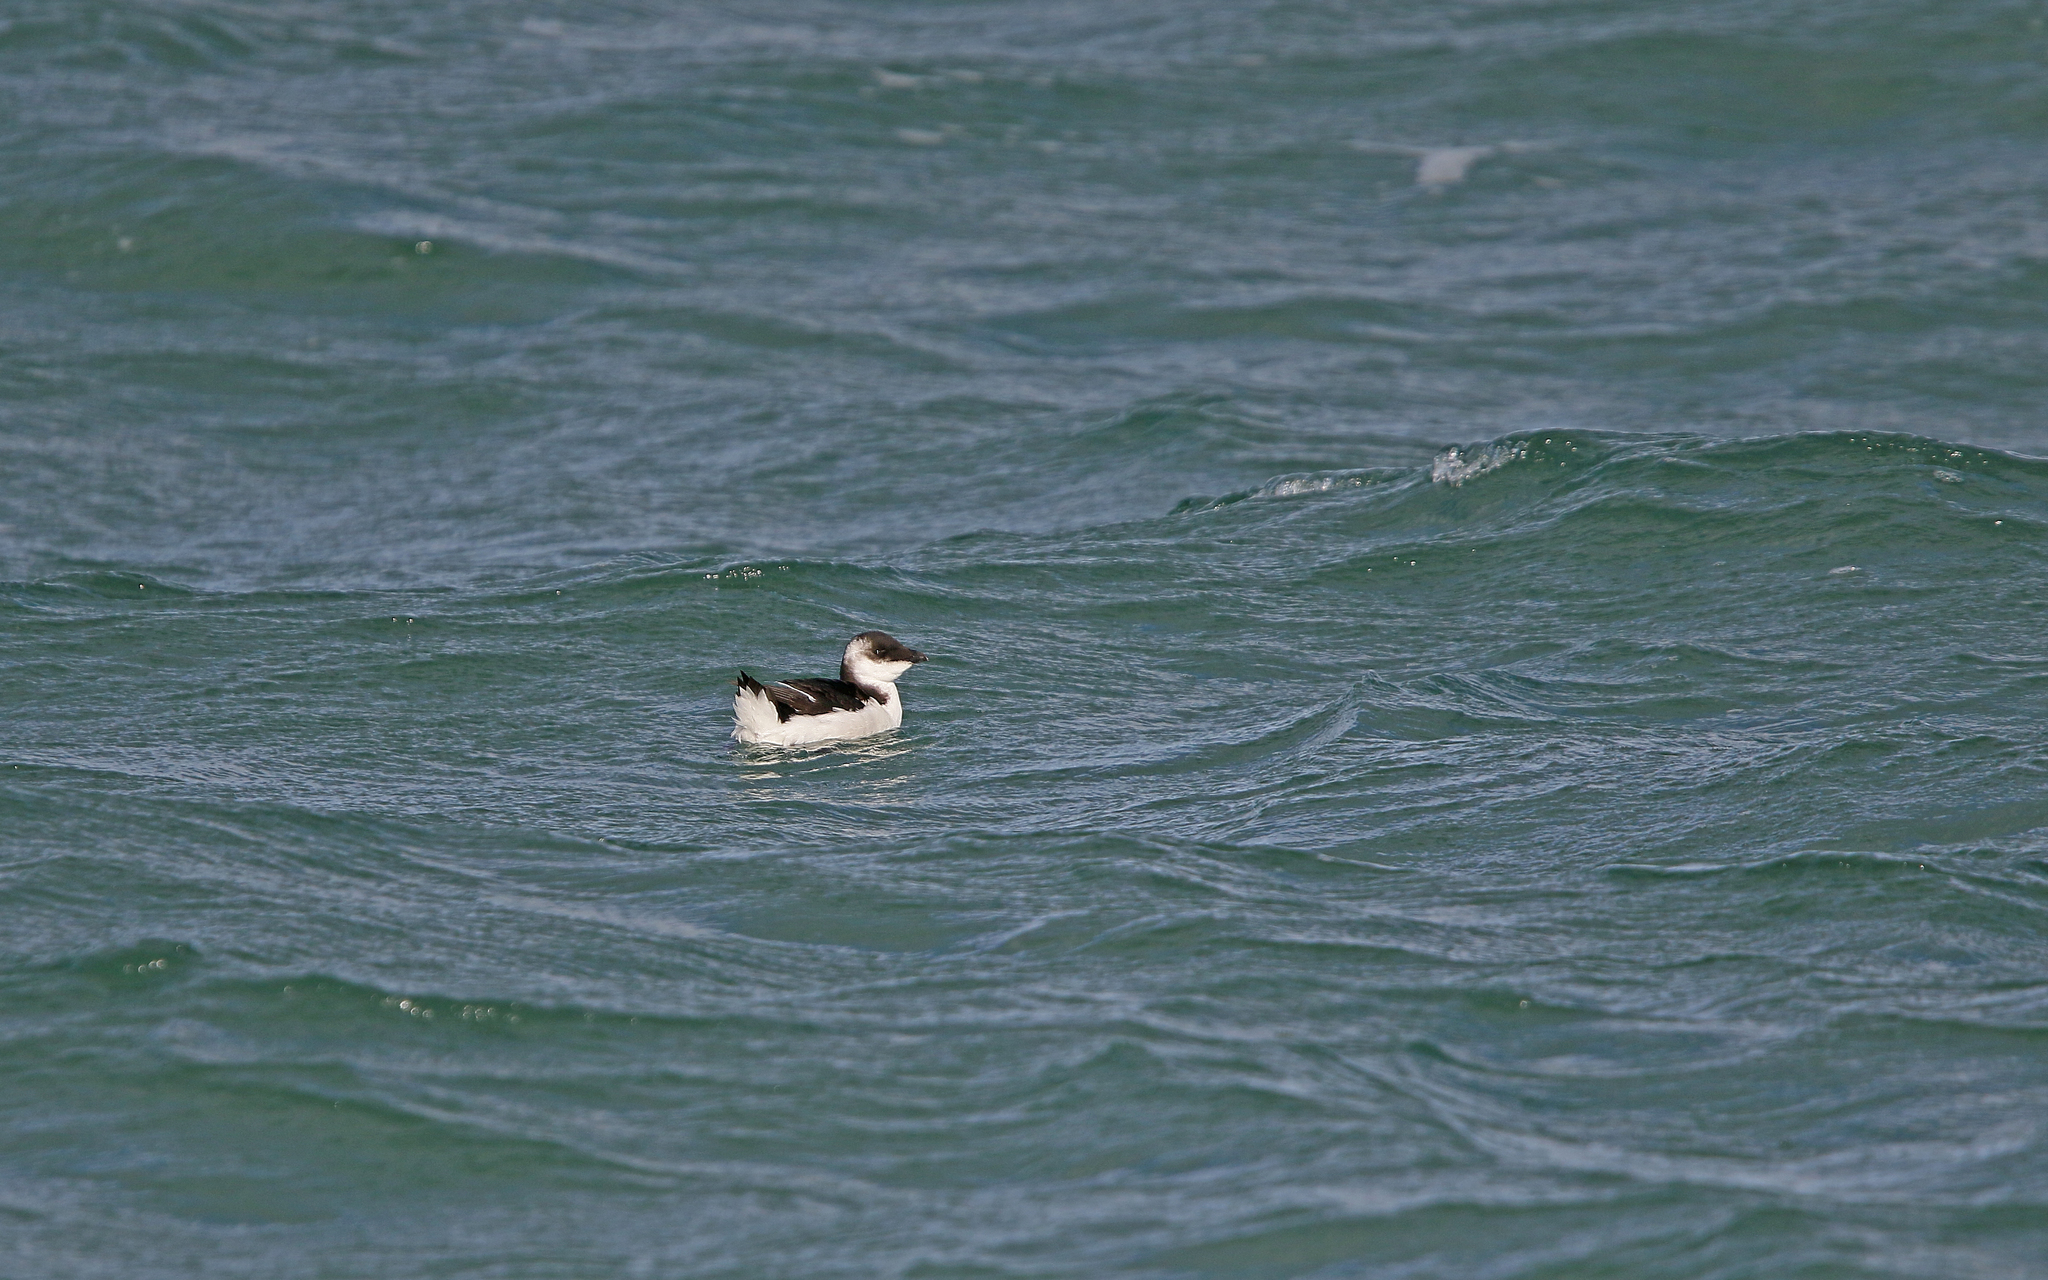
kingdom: Animalia
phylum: Chordata
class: Aves
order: Charadriiformes
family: Alcidae
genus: Alca
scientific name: Alca torda
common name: Razorbill
